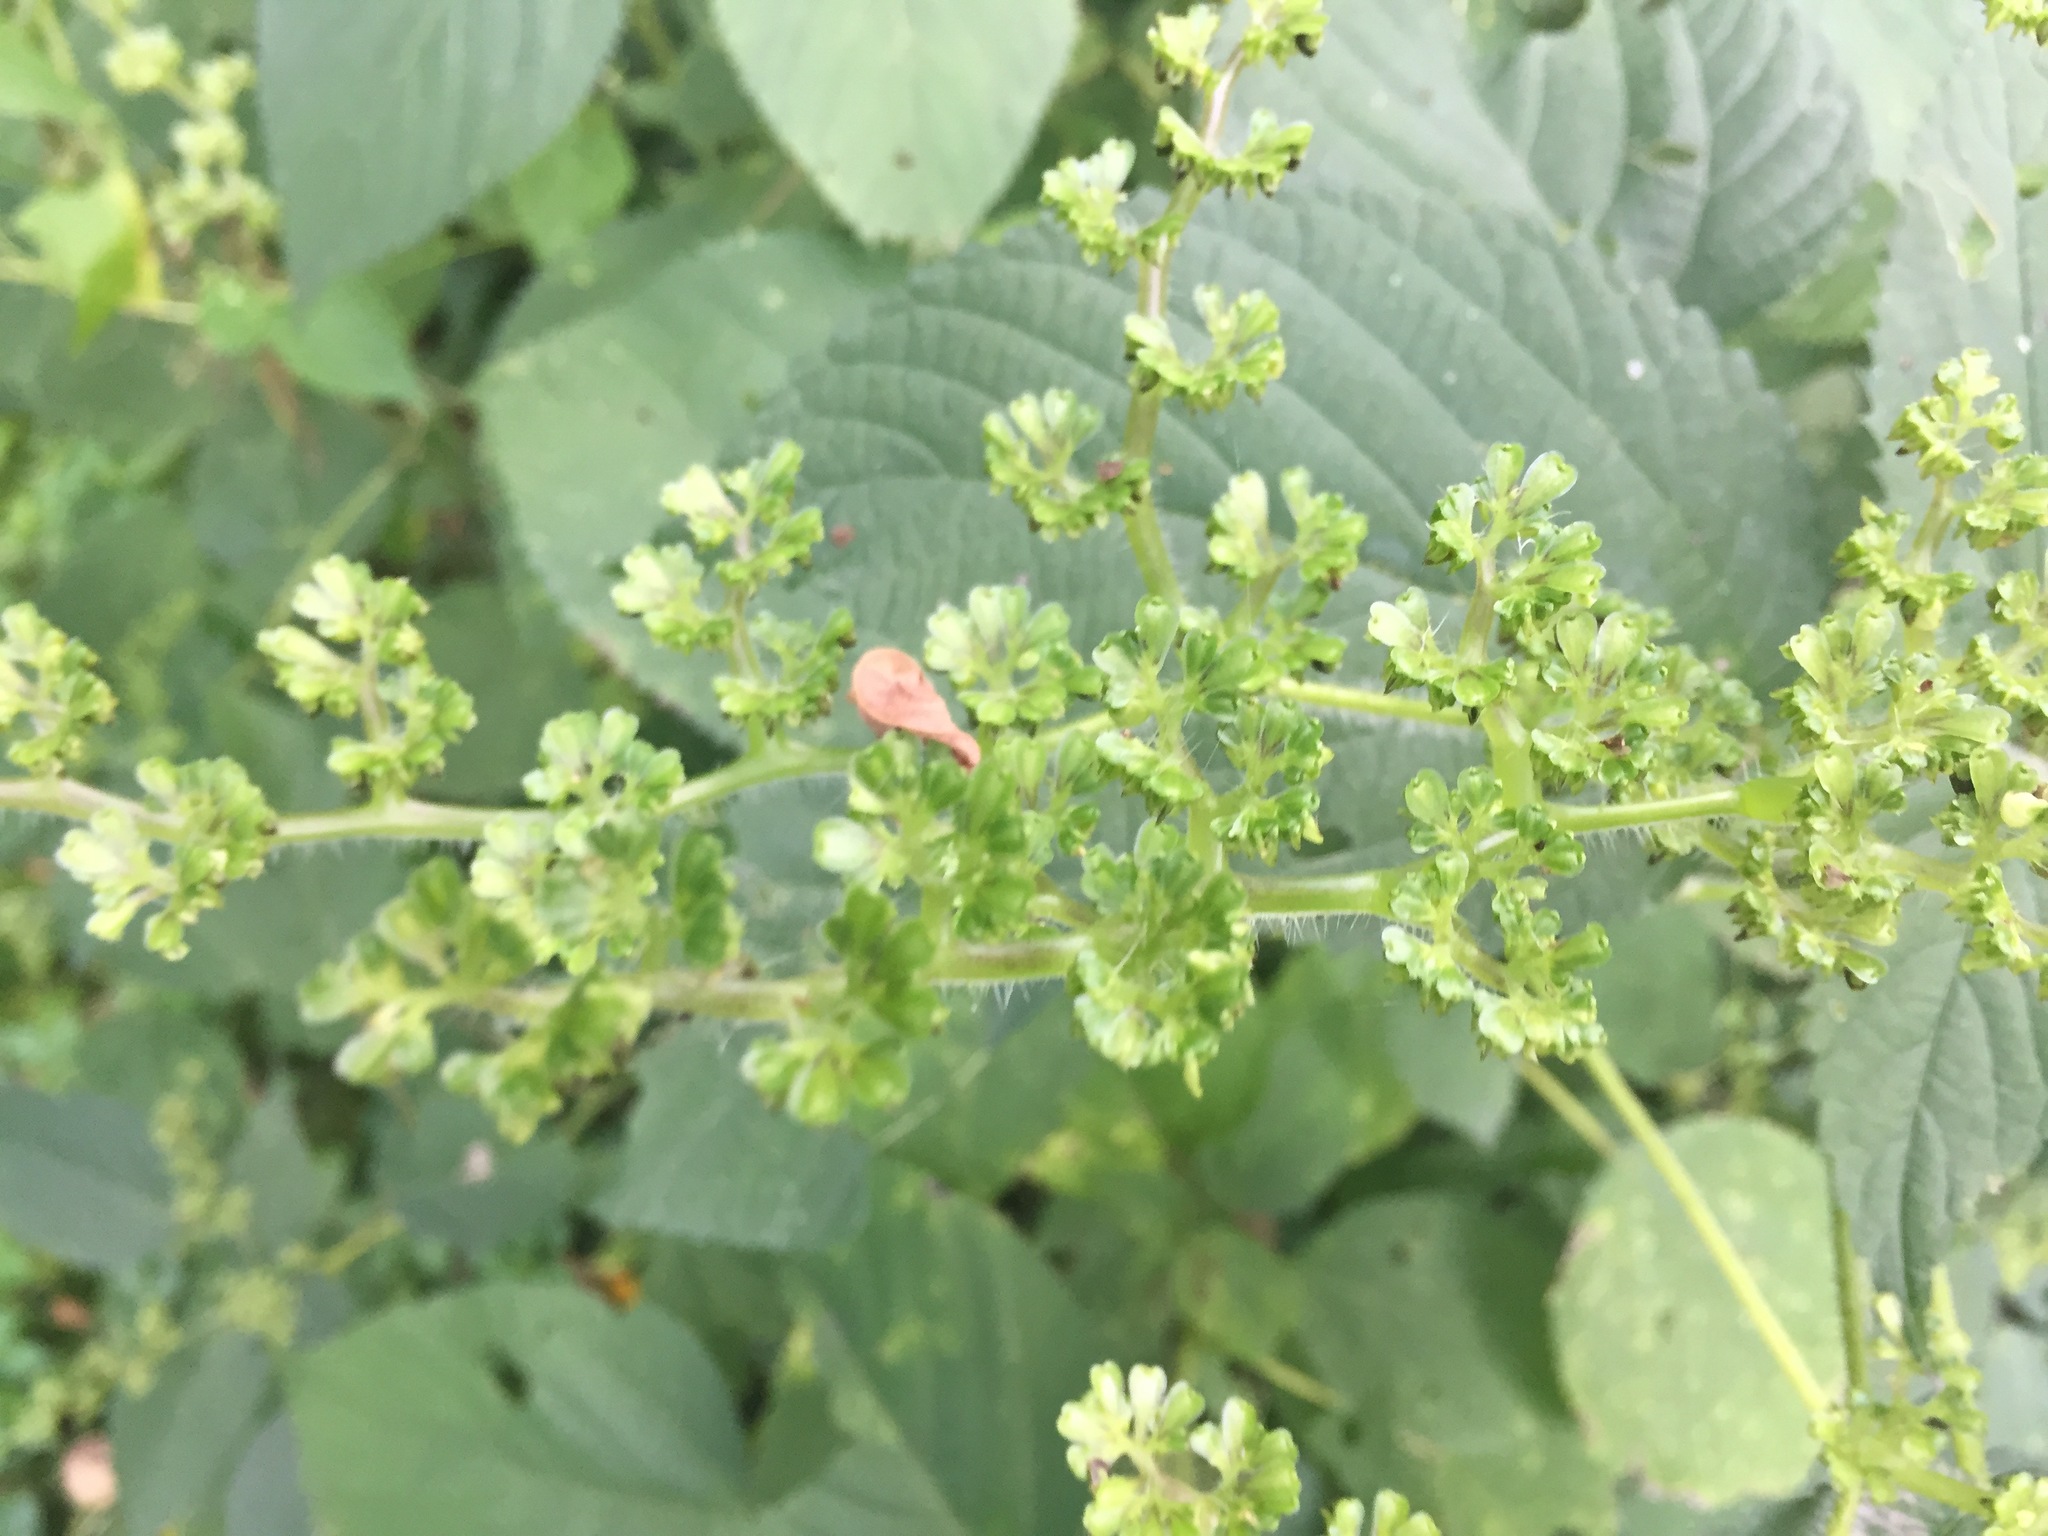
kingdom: Plantae
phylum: Tracheophyta
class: Magnoliopsida
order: Rosales
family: Urticaceae
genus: Laportea
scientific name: Laportea canadensis
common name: Canada nettle
